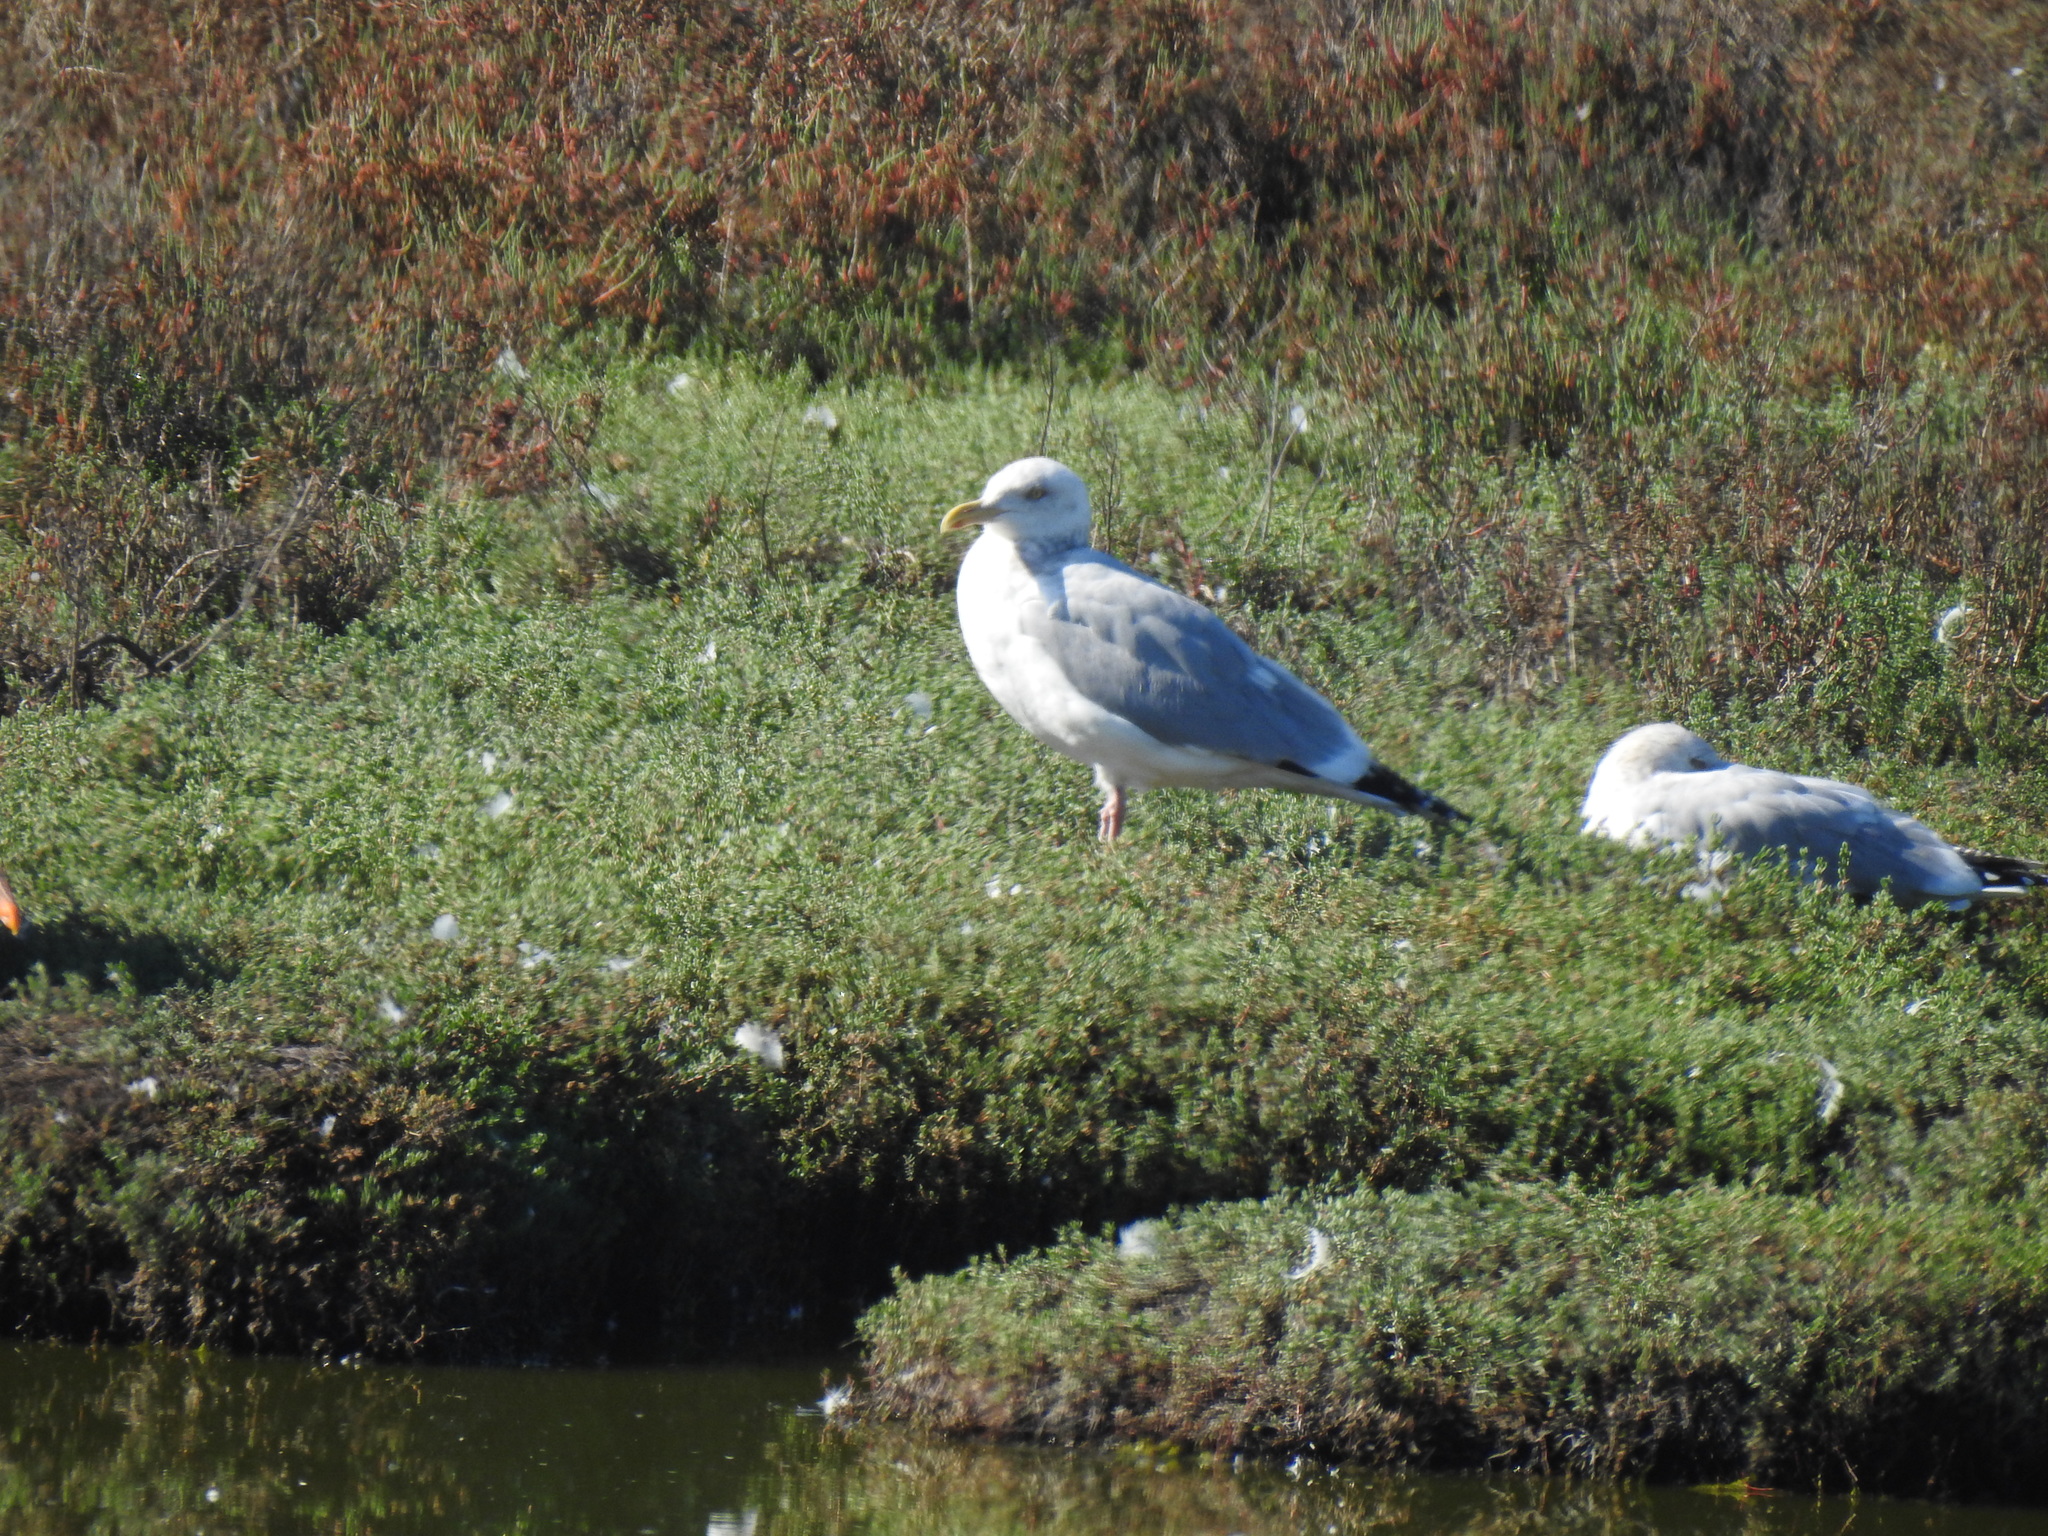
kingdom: Animalia
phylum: Chordata
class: Aves
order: Charadriiformes
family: Laridae
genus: Larus
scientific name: Larus argentatus
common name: Herring gull
